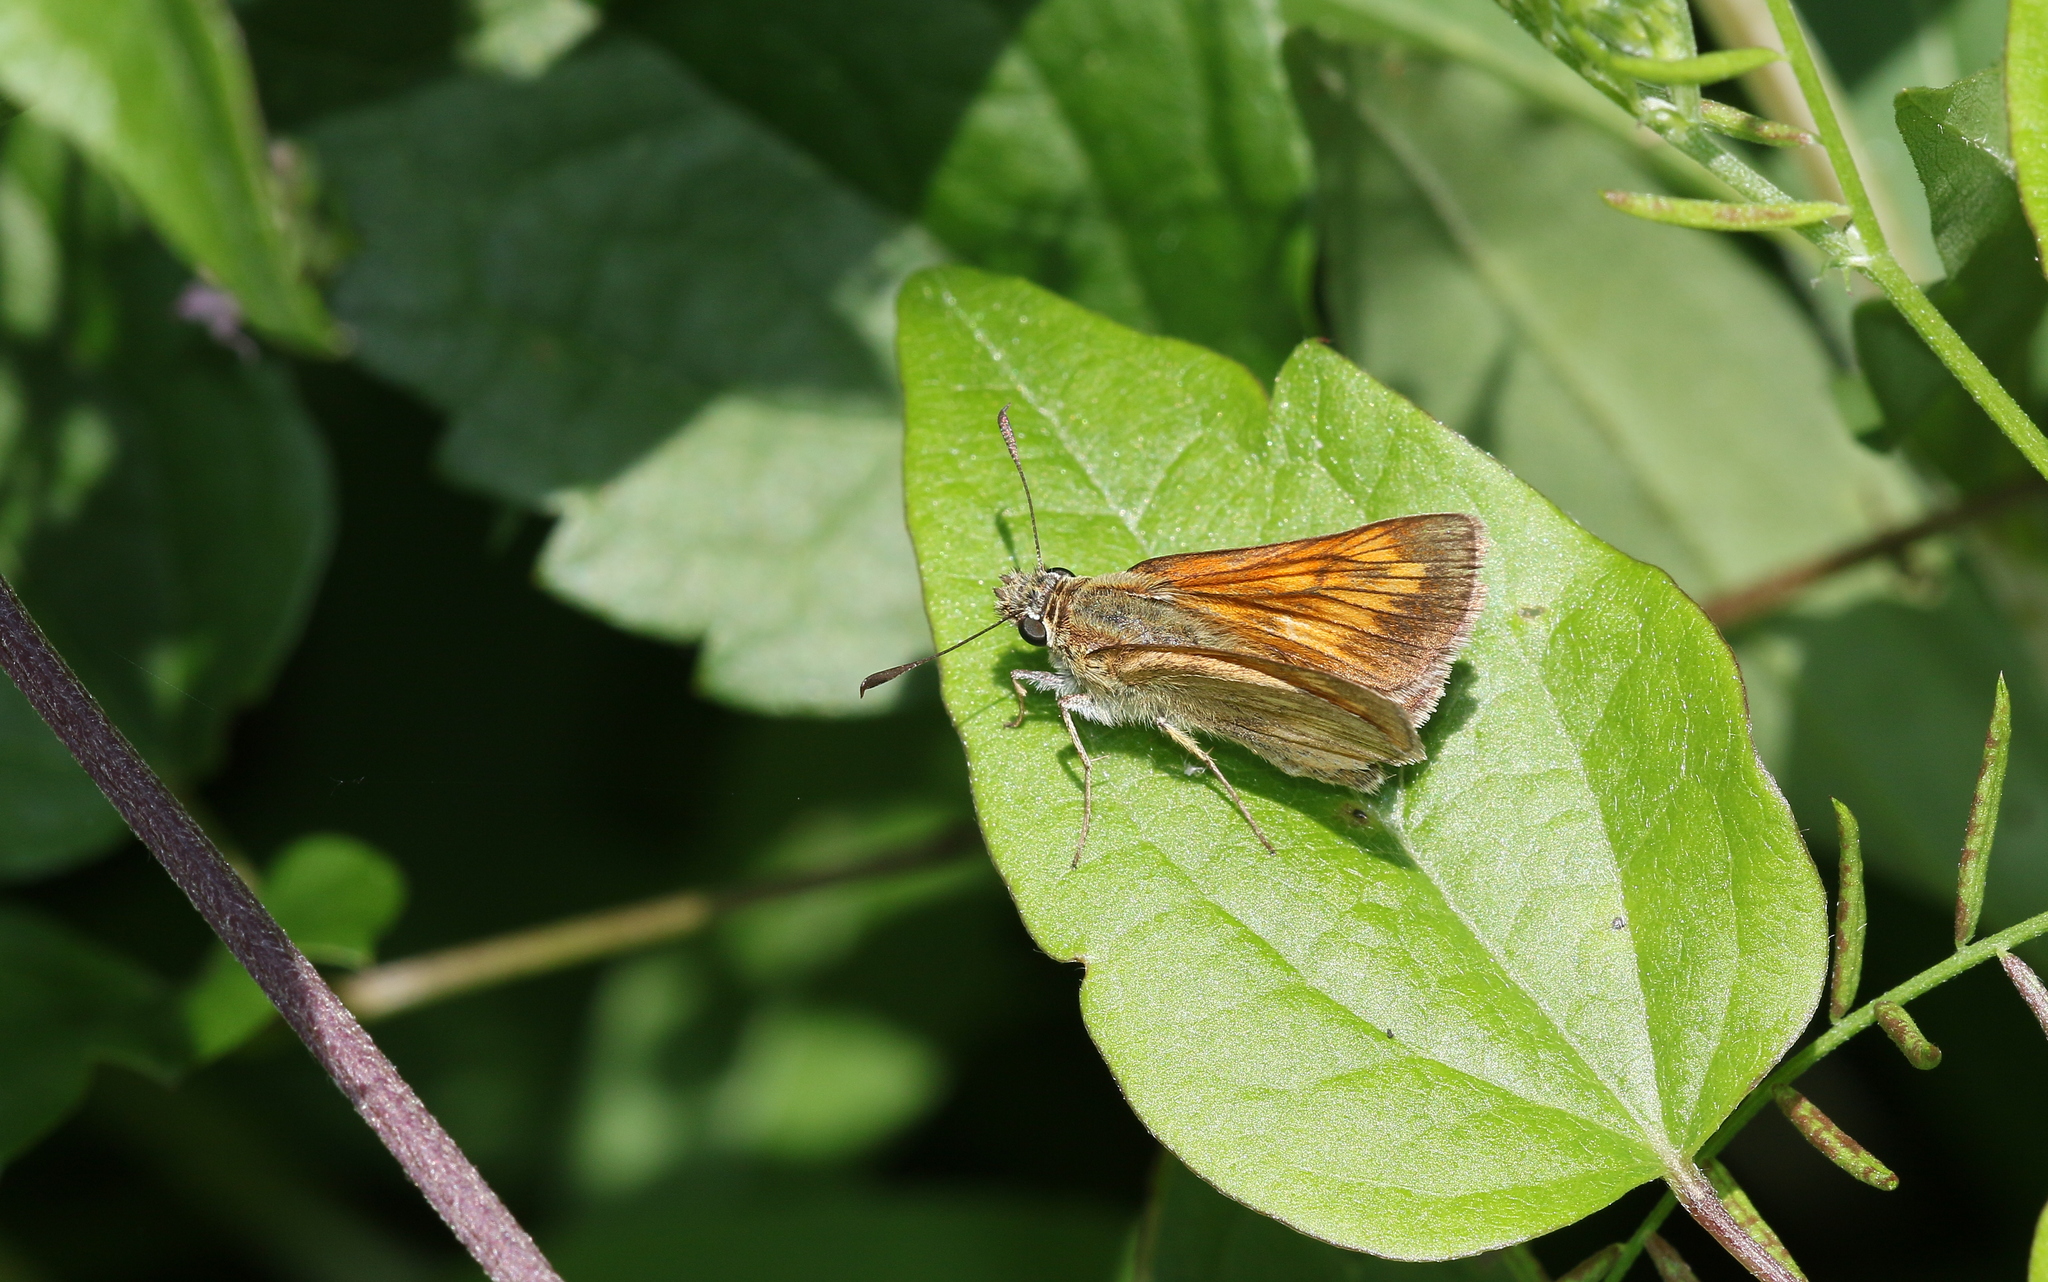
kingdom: Animalia
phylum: Arthropoda
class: Insecta
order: Lepidoptera
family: Hesperiidae
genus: Ochlodes
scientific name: Ochlodes venata
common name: Large skipper
